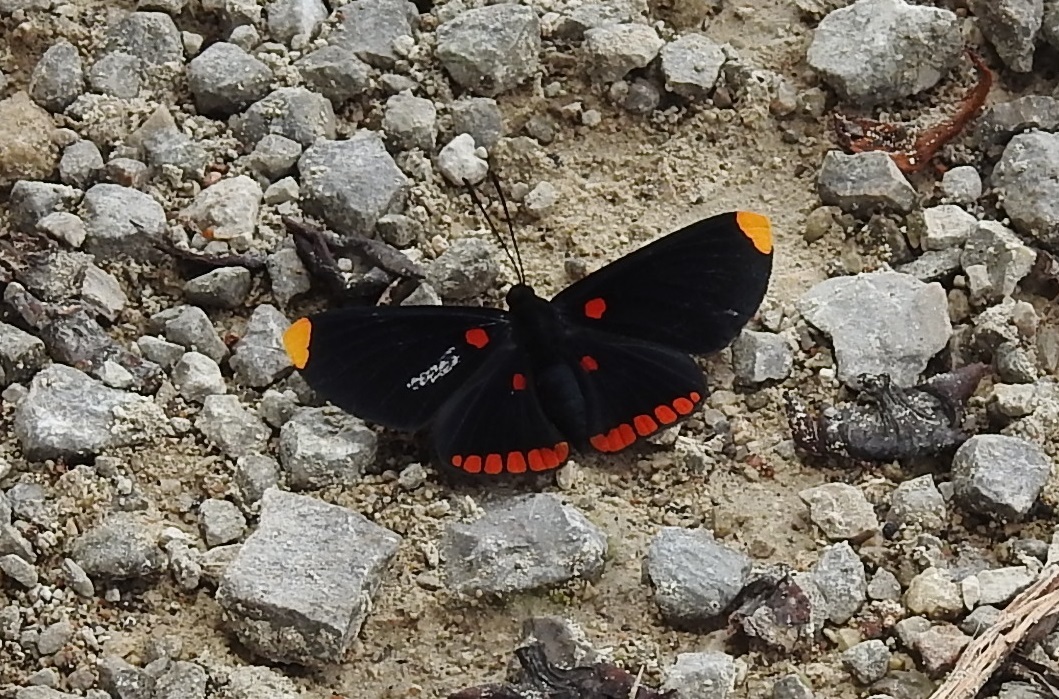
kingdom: Animalia
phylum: Arthropoda
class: Insecta
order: Lepidoptera
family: Lycaenidae
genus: Melanis
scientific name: Melanis pixe
